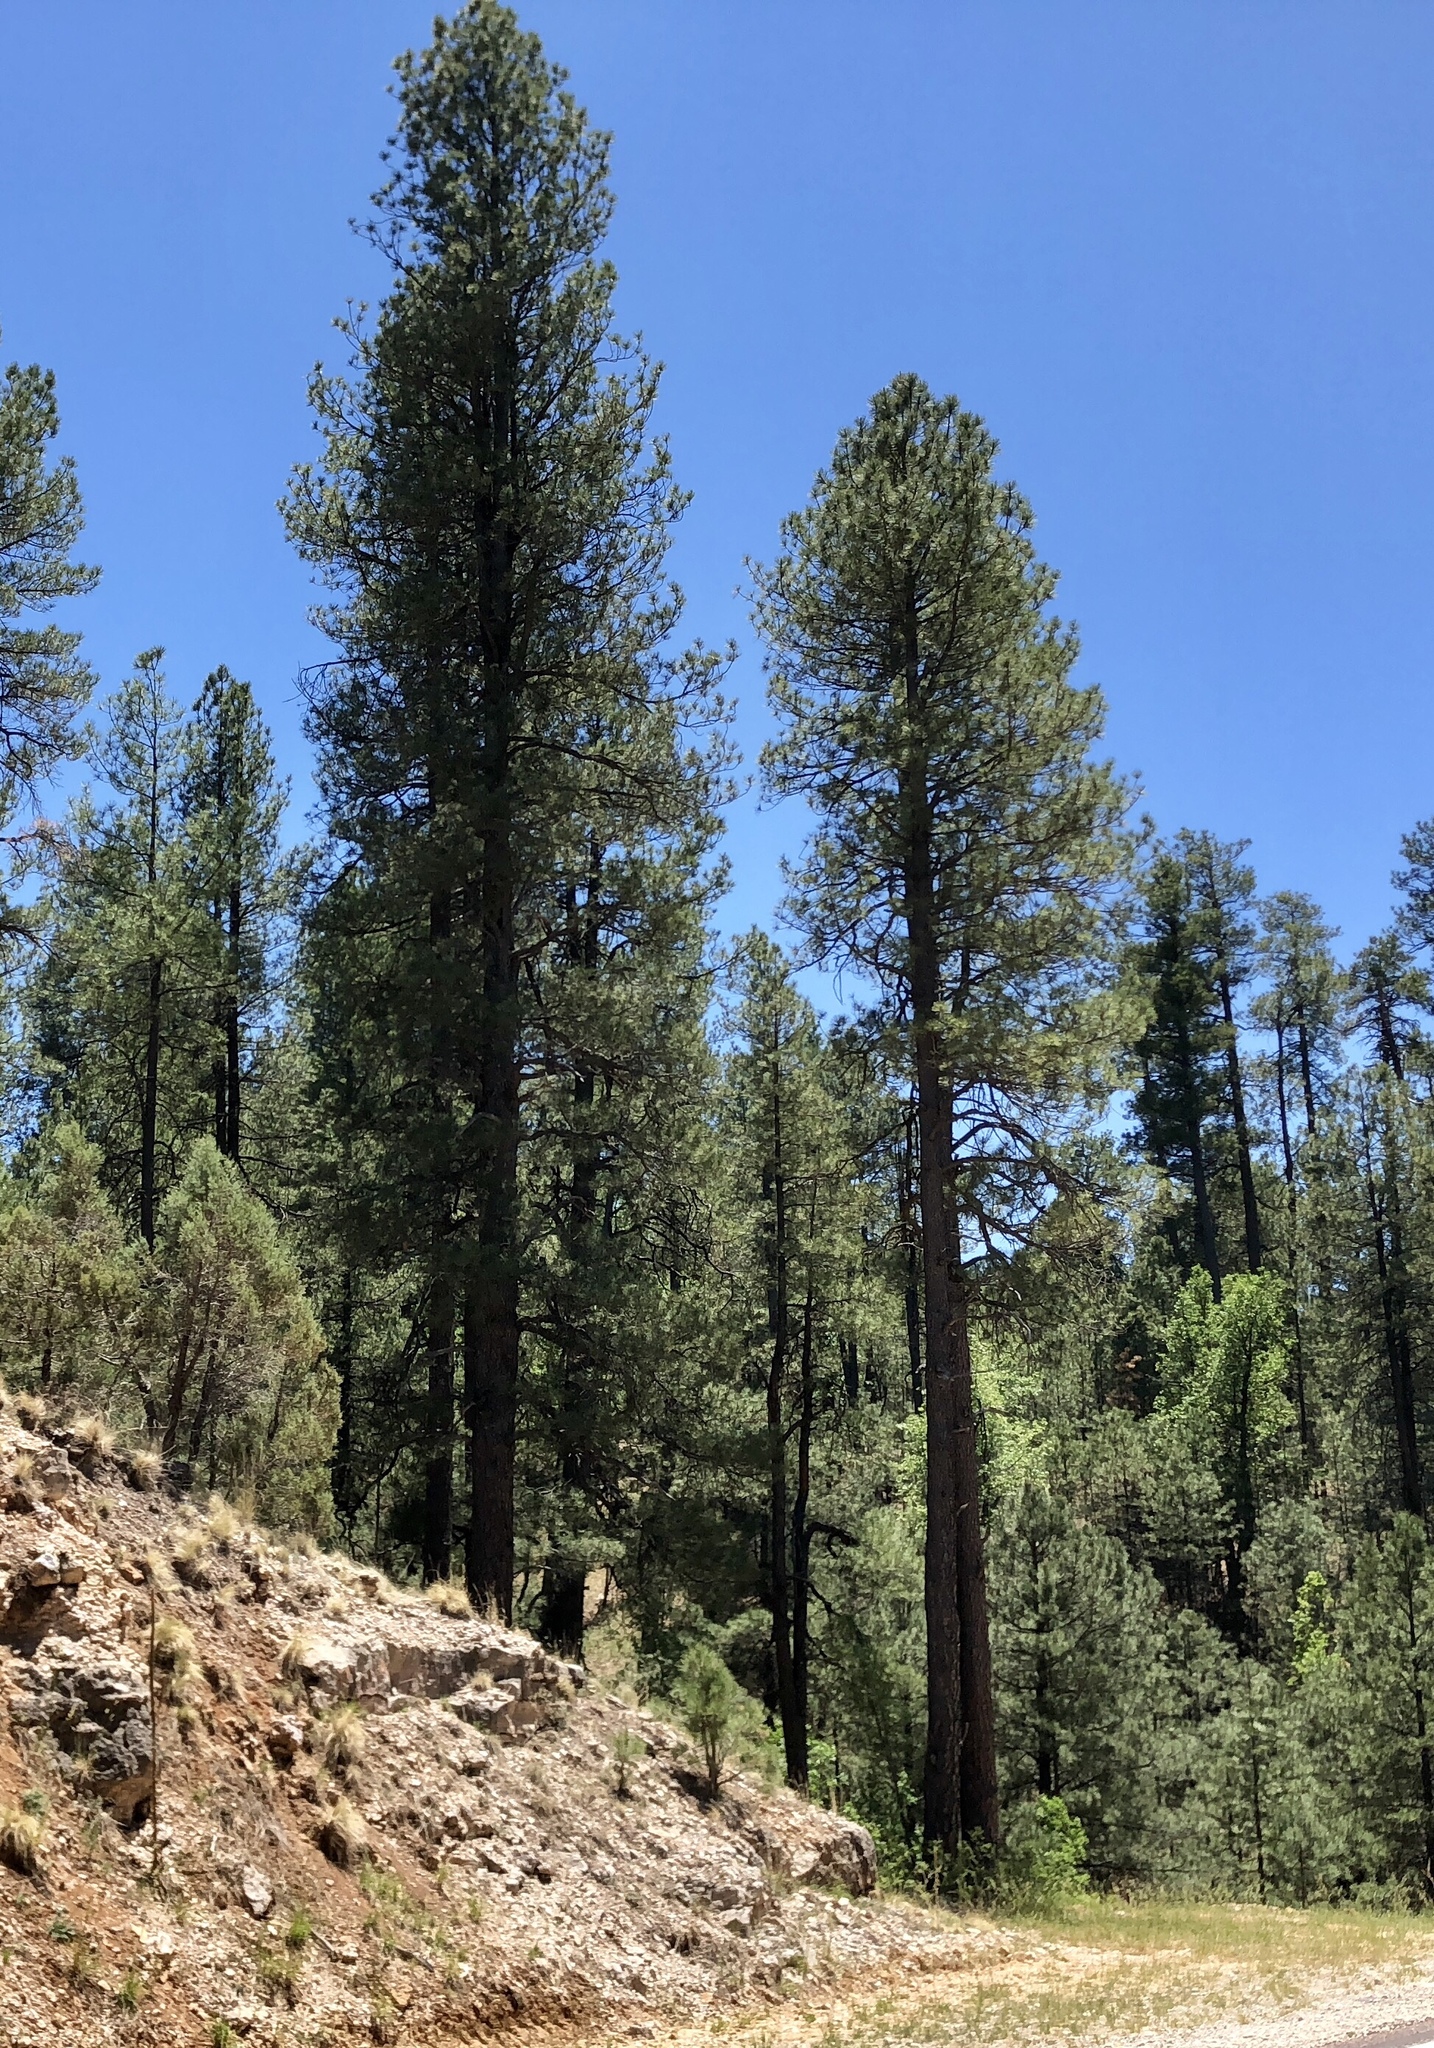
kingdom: Plantae
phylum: Tracheophyta
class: Pinopsida
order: Pinales
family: Pinaceae
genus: Pinus
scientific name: Pinus ponderosa
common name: Western yellow-pine
